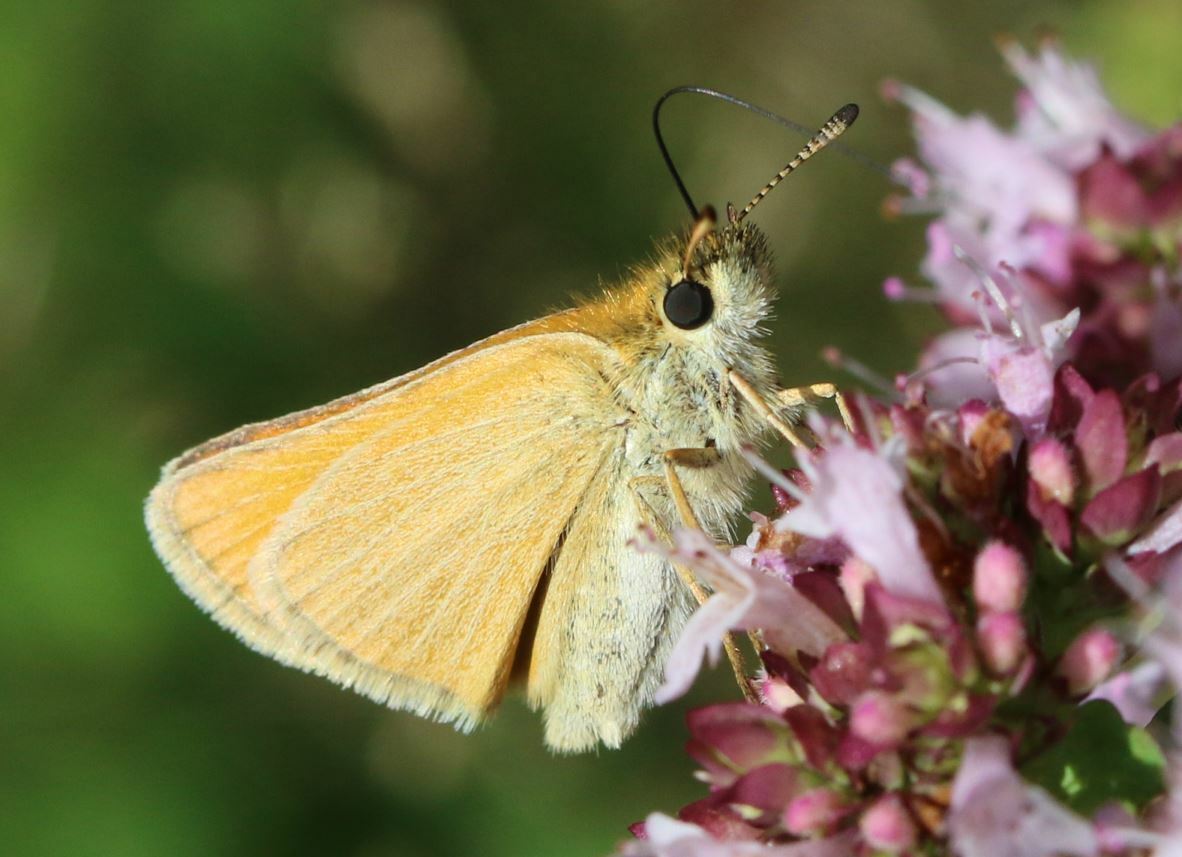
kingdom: Animalia
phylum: Arthropoda
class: Insecta
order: Lepidoptera
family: Hesperiidae
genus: Thymelicus
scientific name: Thymelicus lineola
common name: Essex skipper
